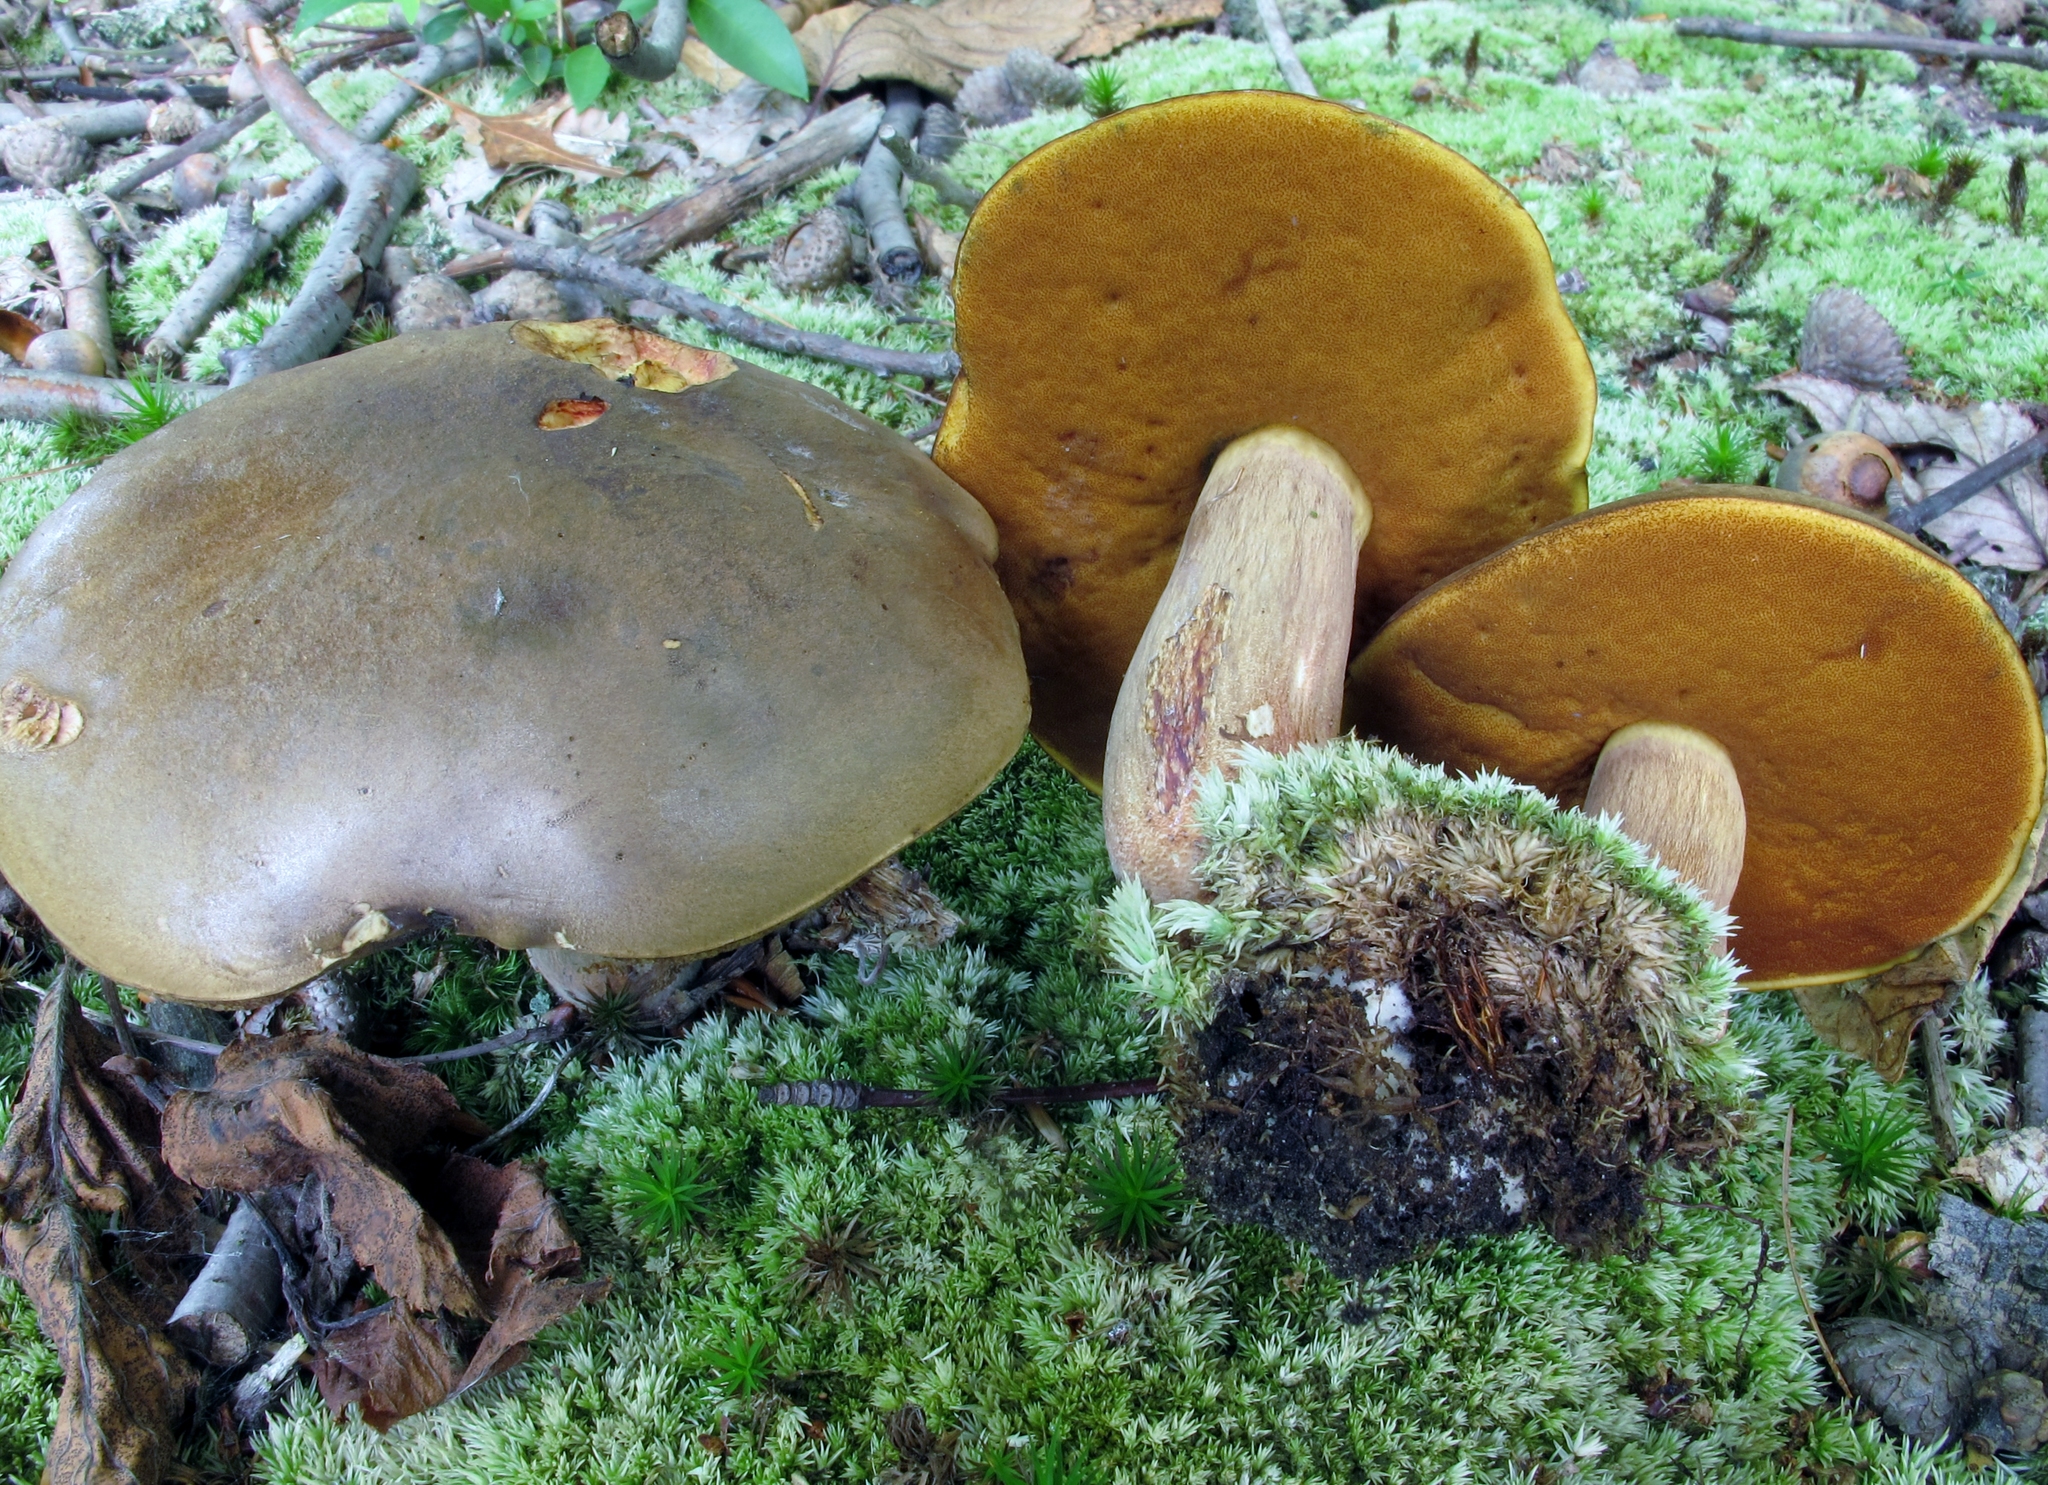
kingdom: Fungi
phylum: Basidiomycota
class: Agaricomycetes
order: Boletales
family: Boletaceae
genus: Boletus
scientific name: Boletus vermiculosoides
